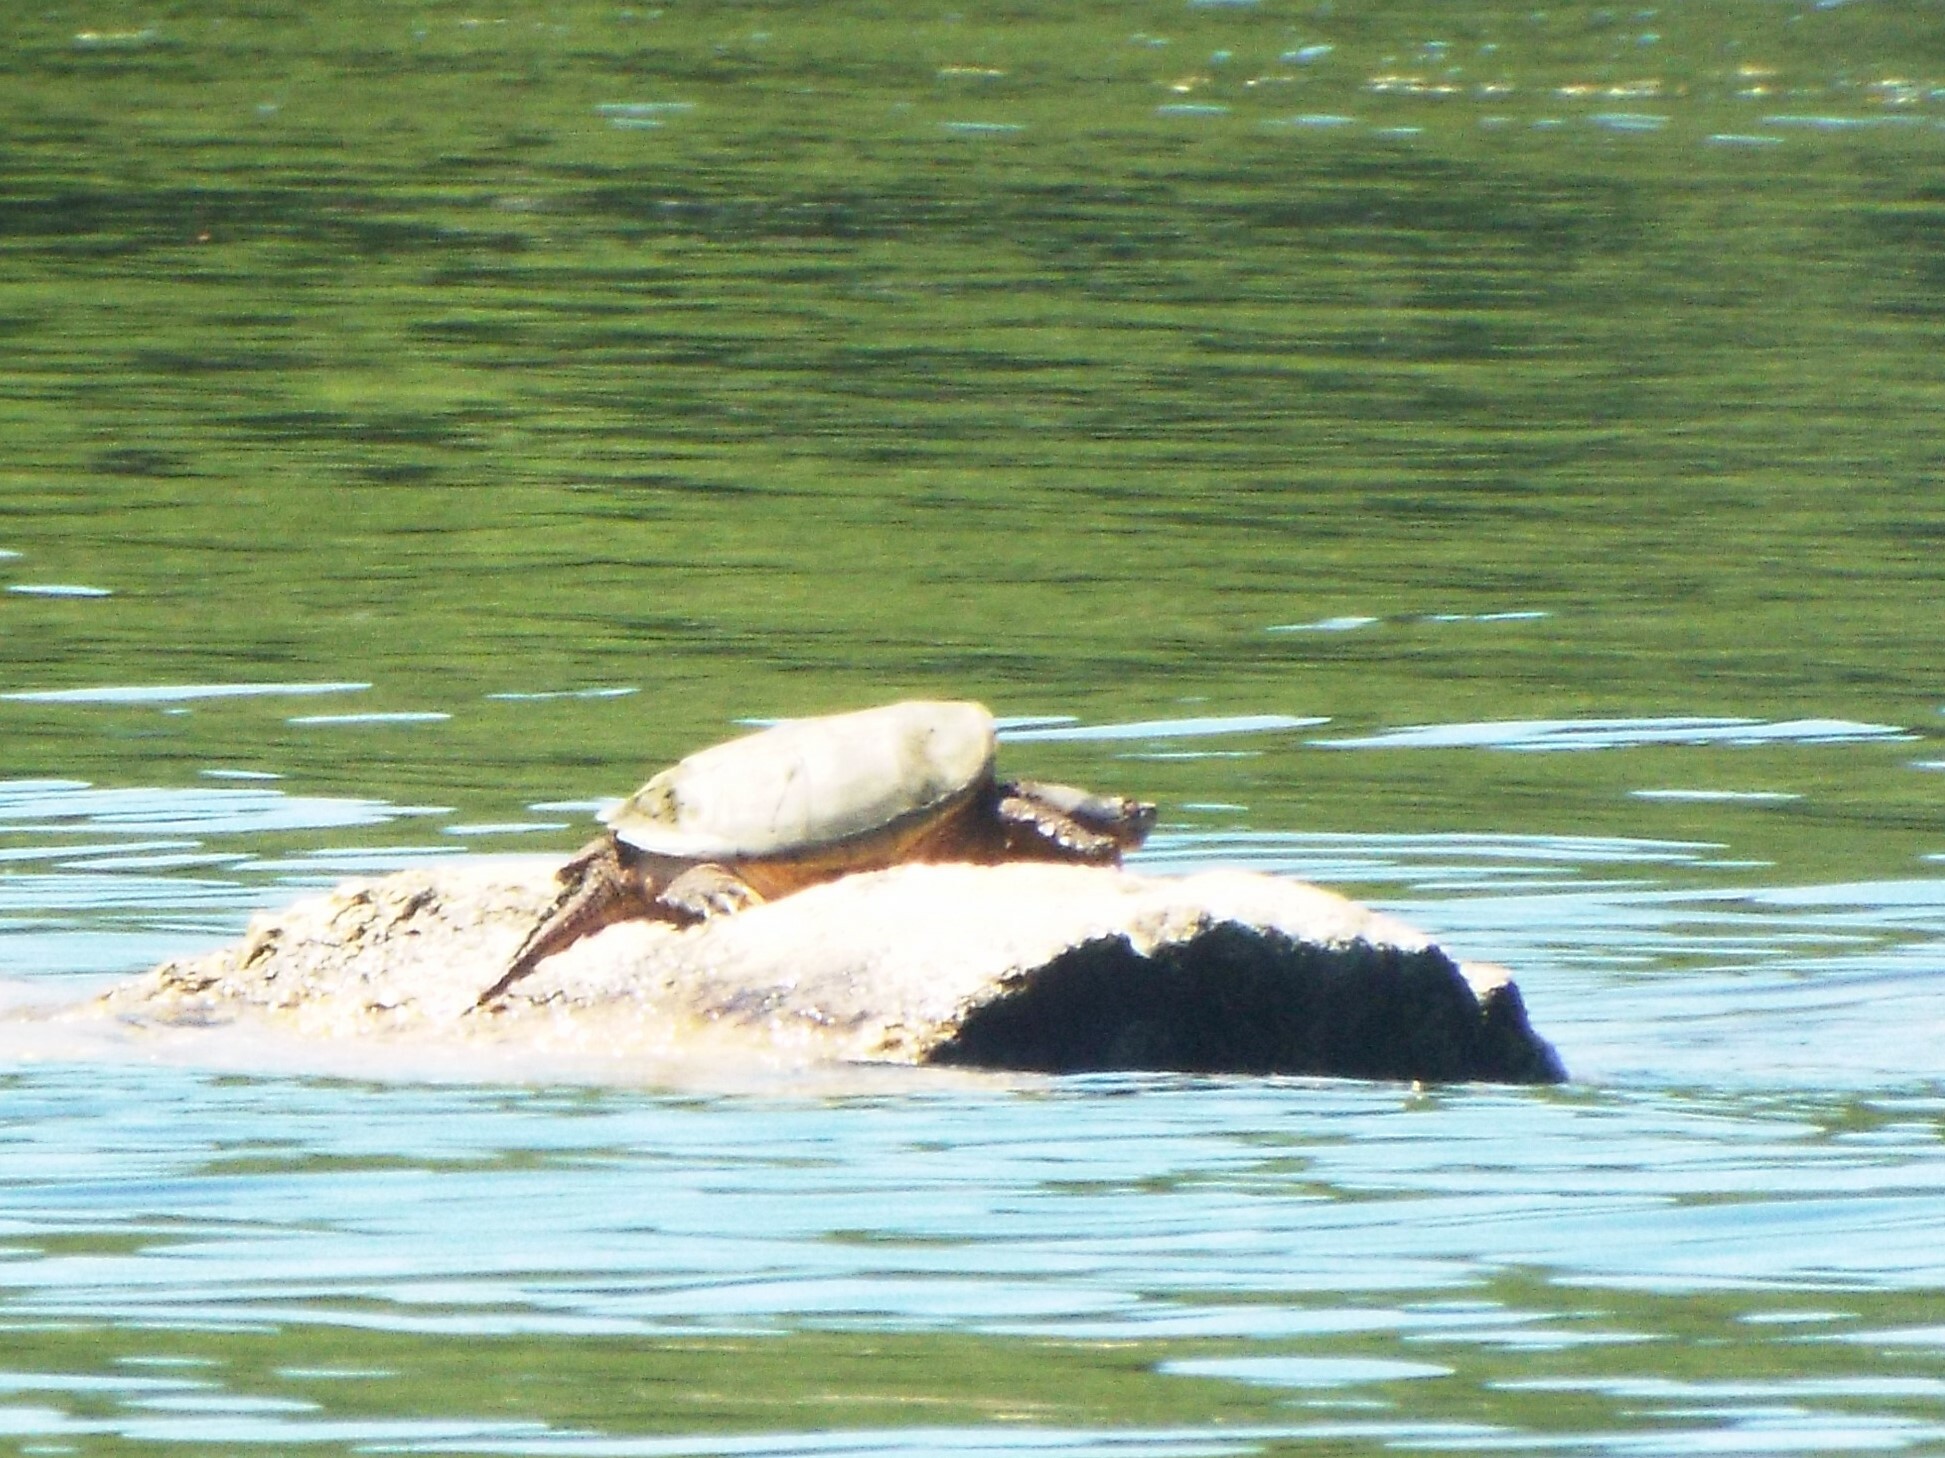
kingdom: Animalia
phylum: Chordata
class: Testudines
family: Chelydridae
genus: Chelydra
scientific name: Chelydra serpentina
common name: Common snapping turtle
